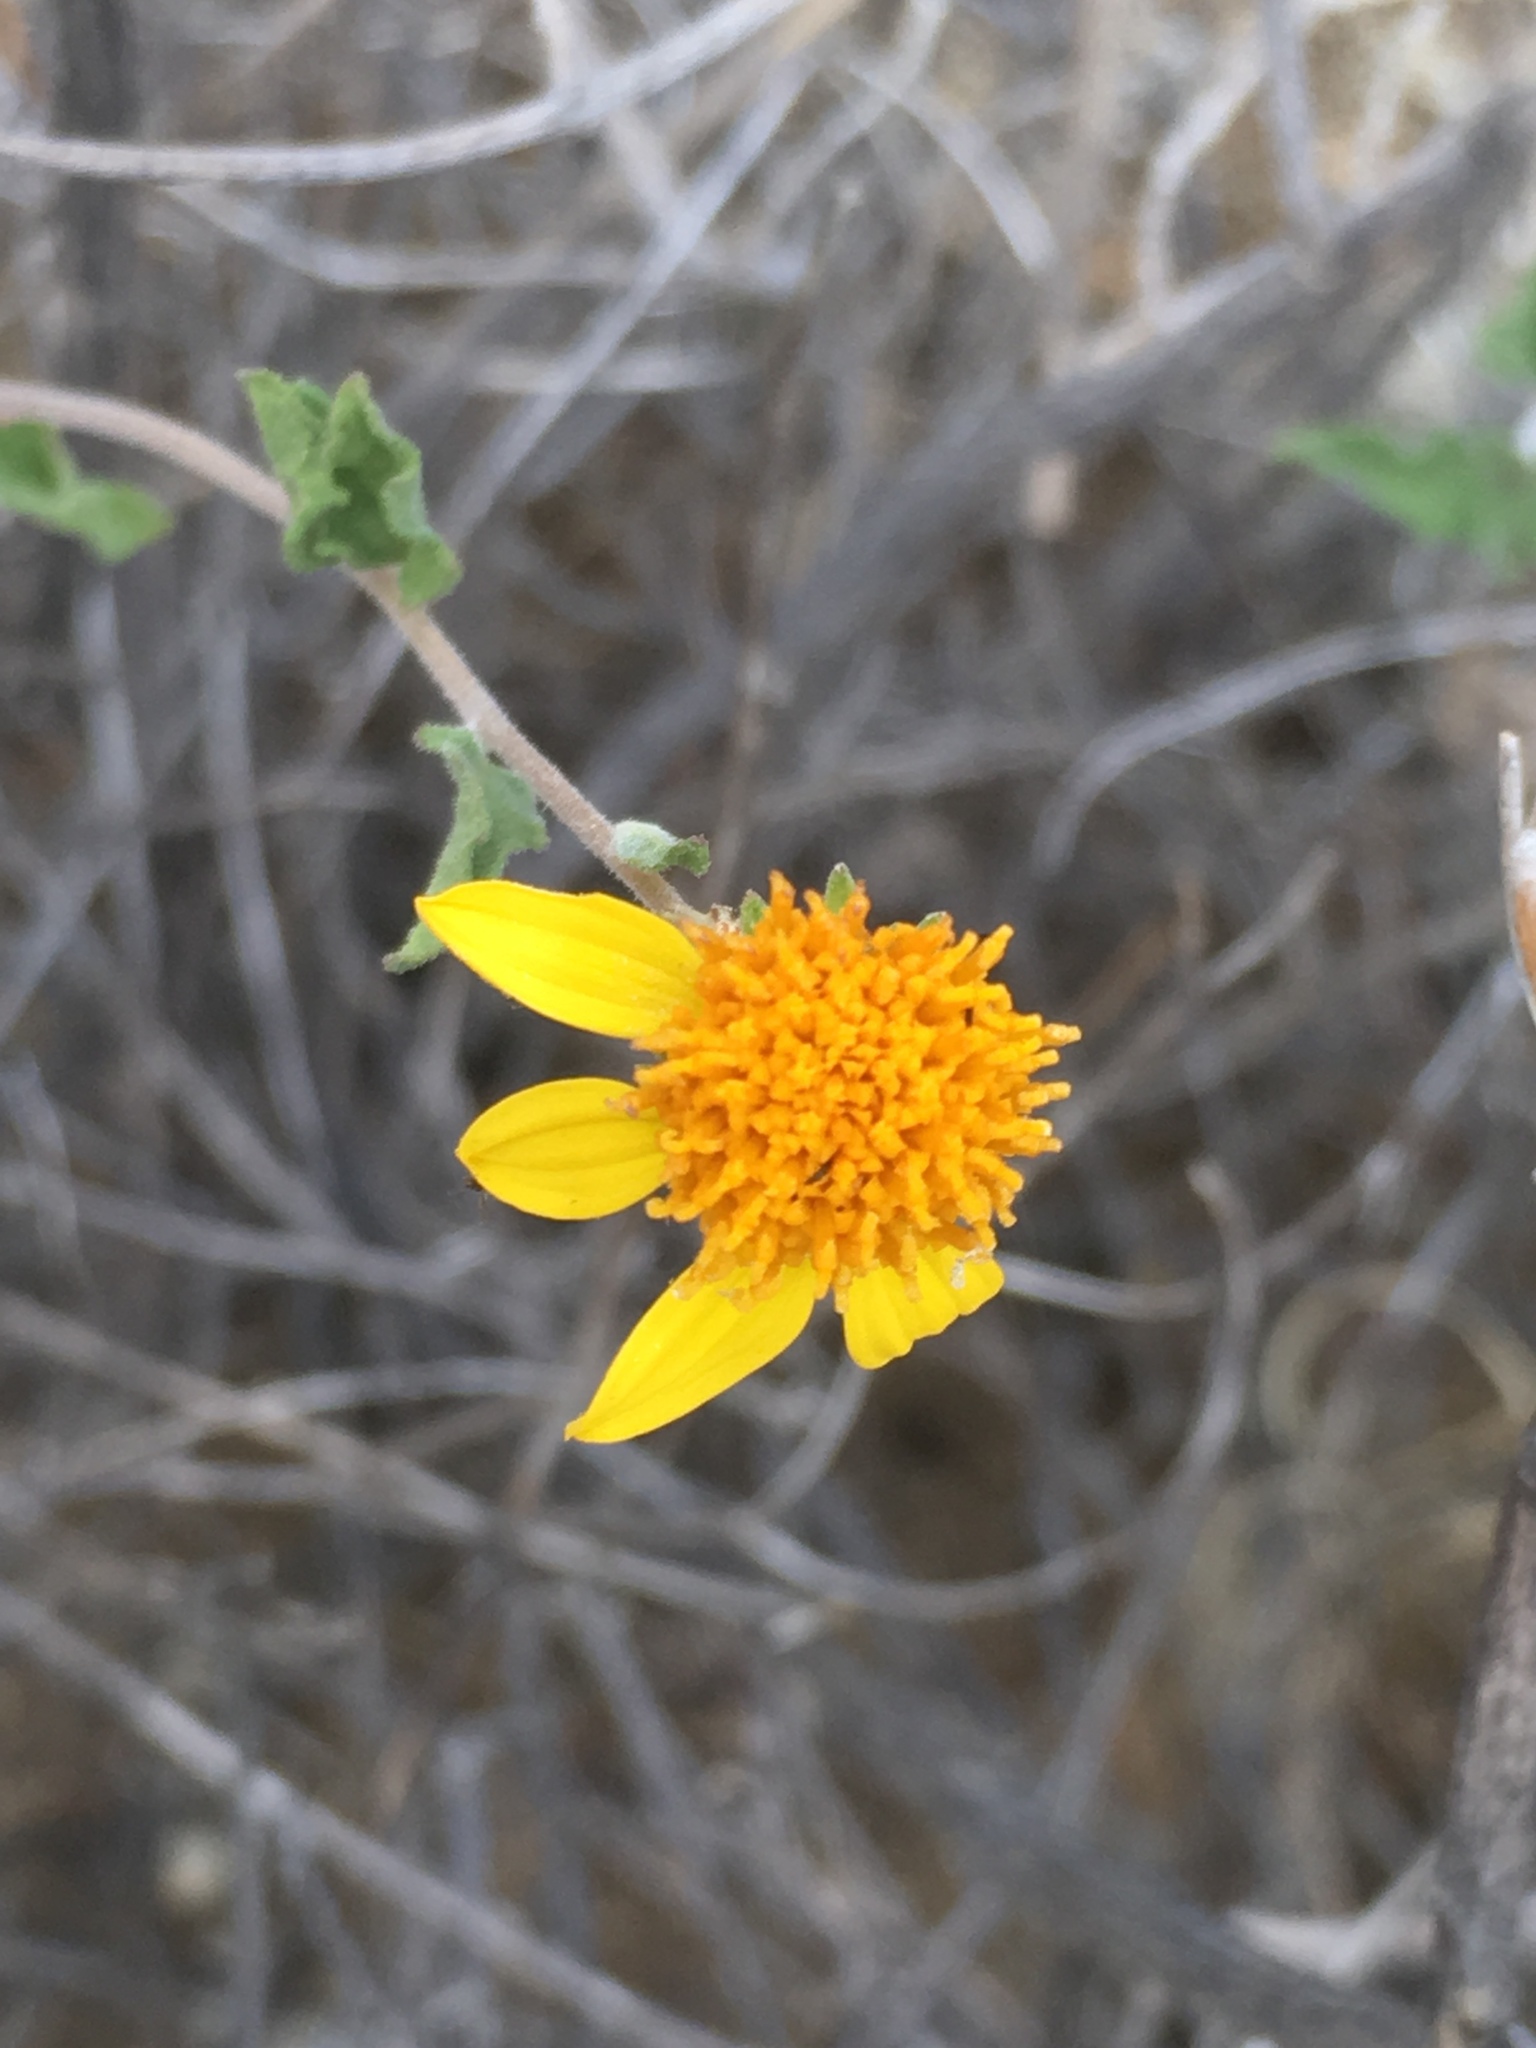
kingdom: Plantae
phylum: Tracheophyta
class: Magnoliopsida
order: Asterales
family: Asteraceae
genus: Bahiopsis
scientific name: Bahiopsis parishii
